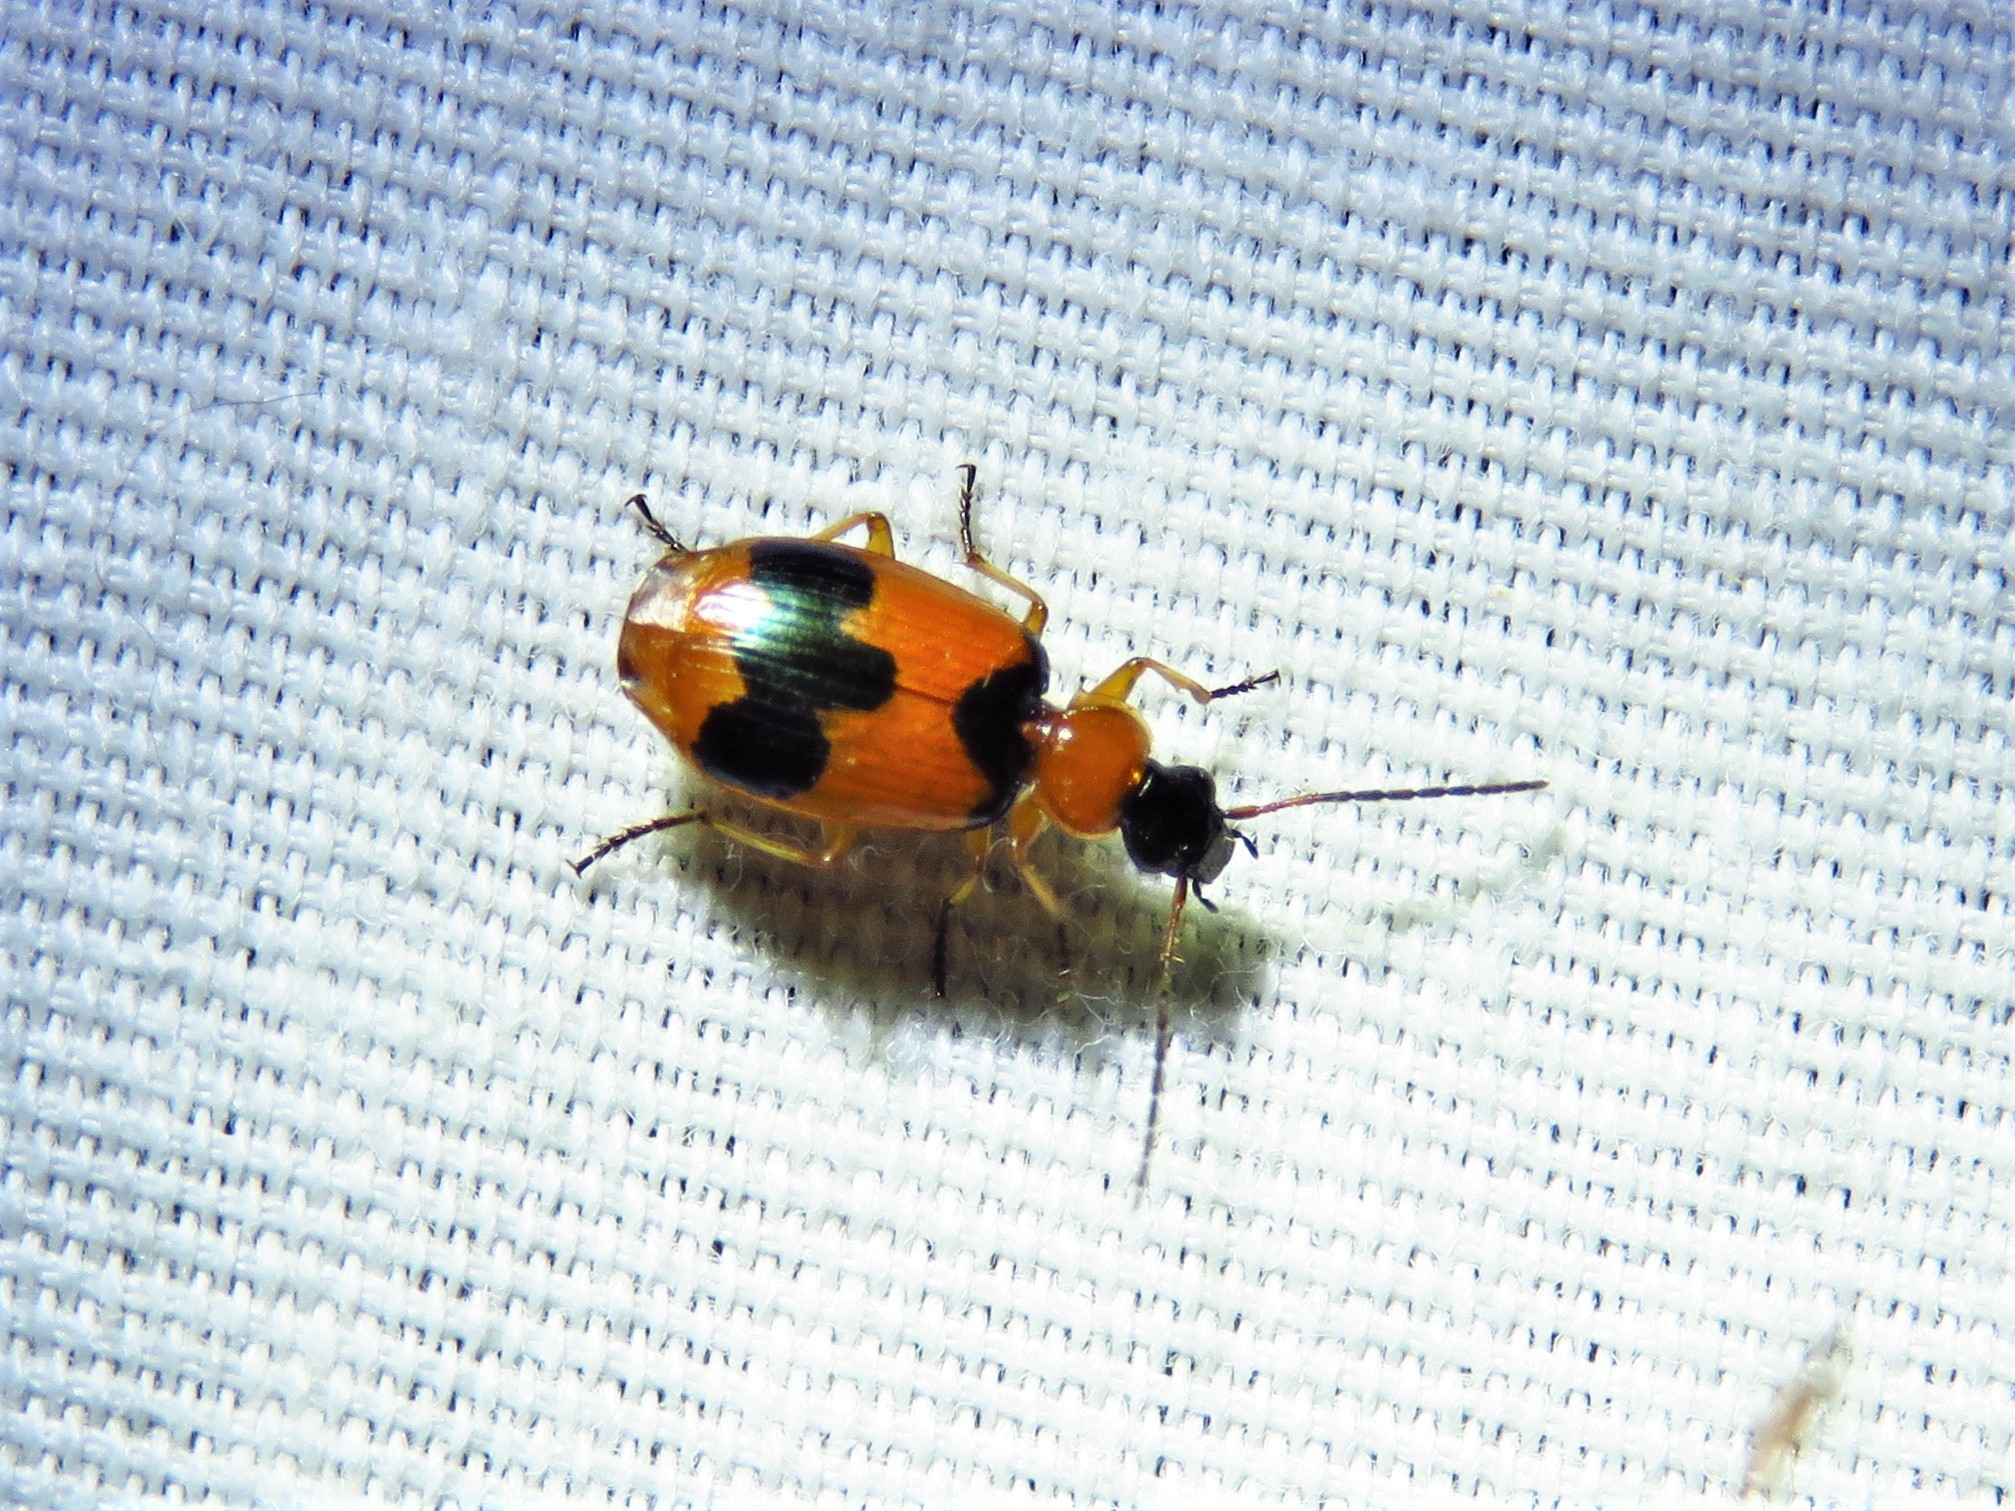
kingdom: Animalia
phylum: Arthropoda
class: Insecta
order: Coleoptera
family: Carabidae
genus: Lebia
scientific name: Lebia pulchella
